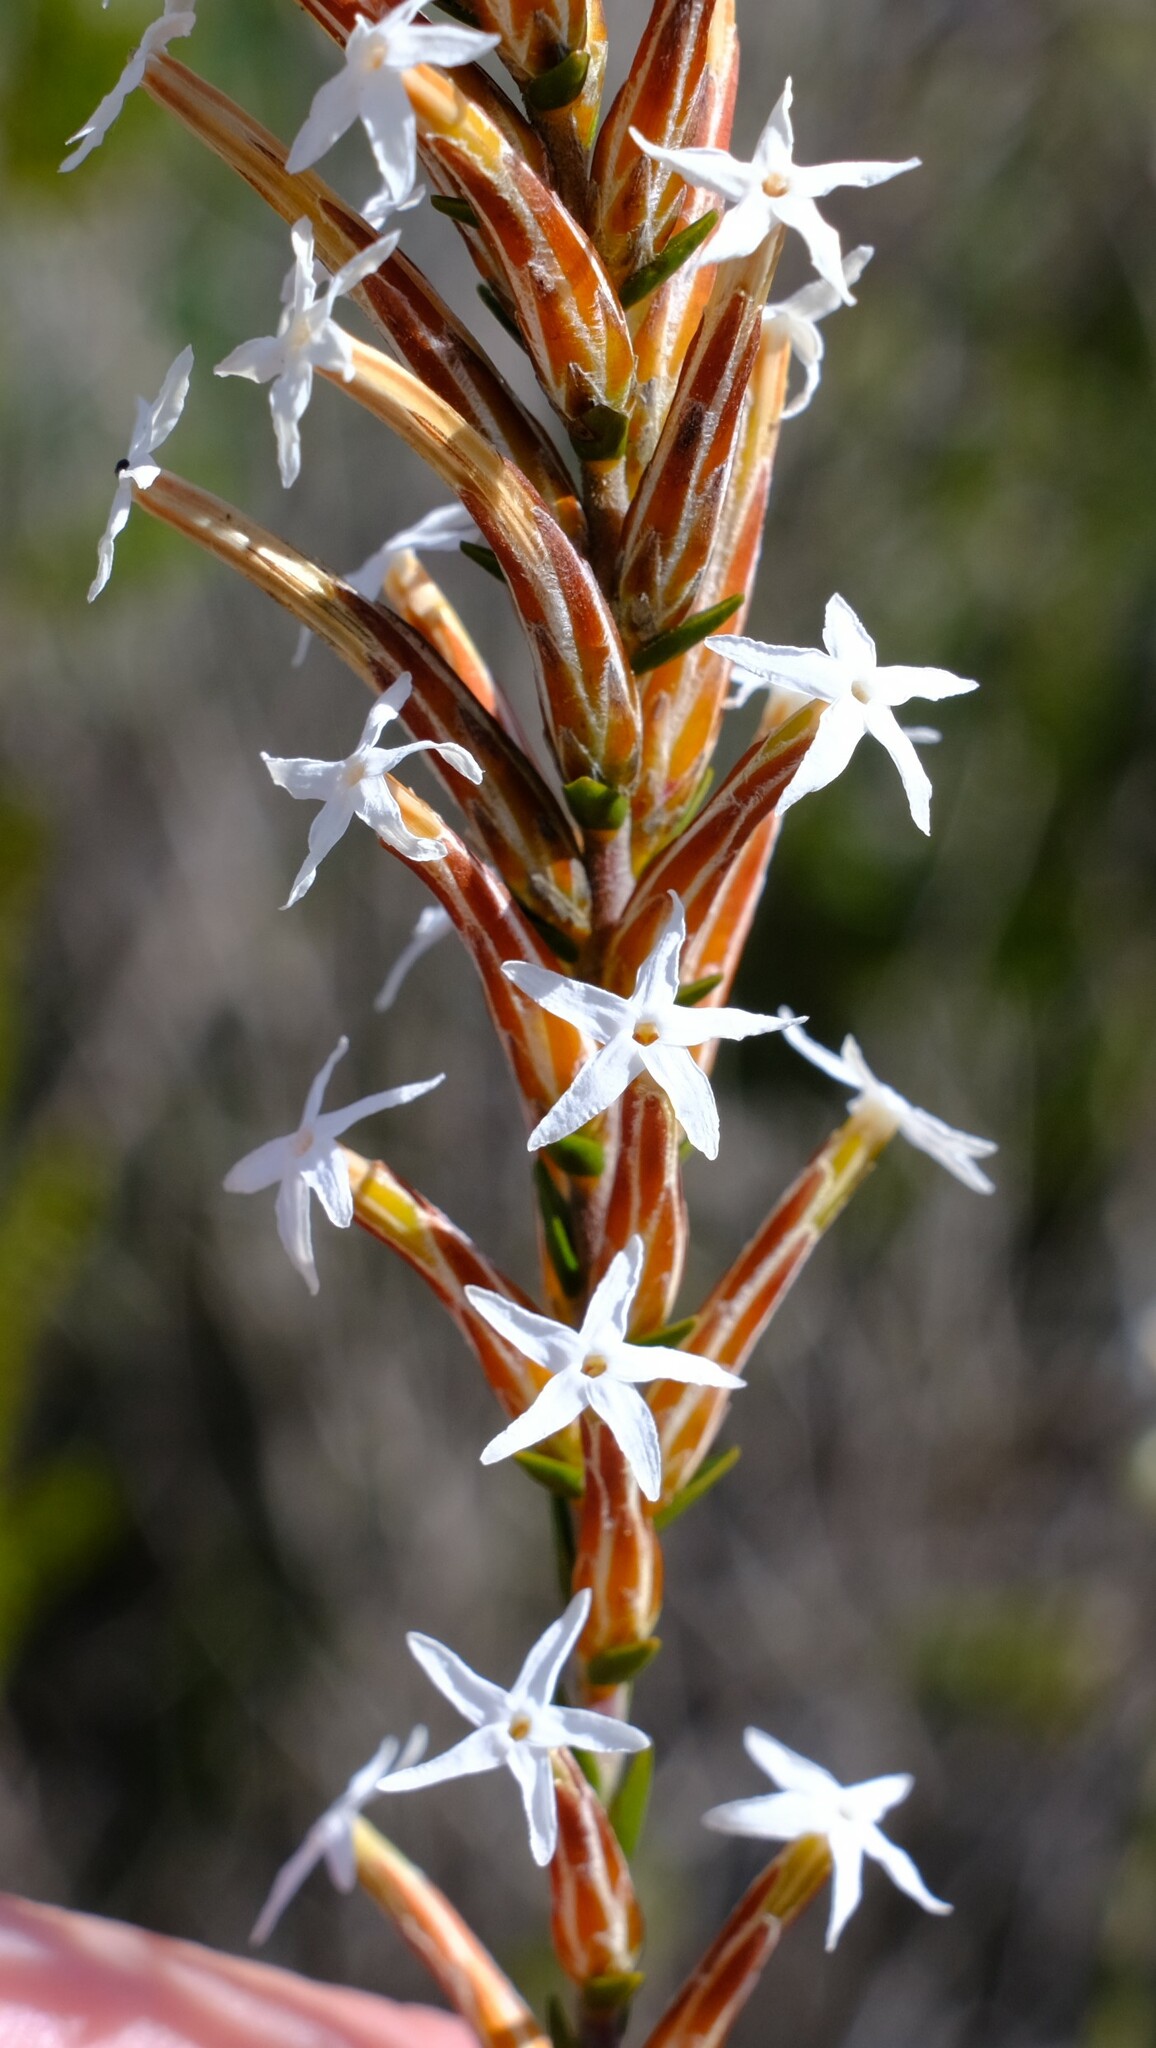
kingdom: Plantae
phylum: Tracheophyta
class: Magnoliopsida
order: Ericales
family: Ericaceae
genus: Lysinema
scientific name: Lysinema pentapetalum
